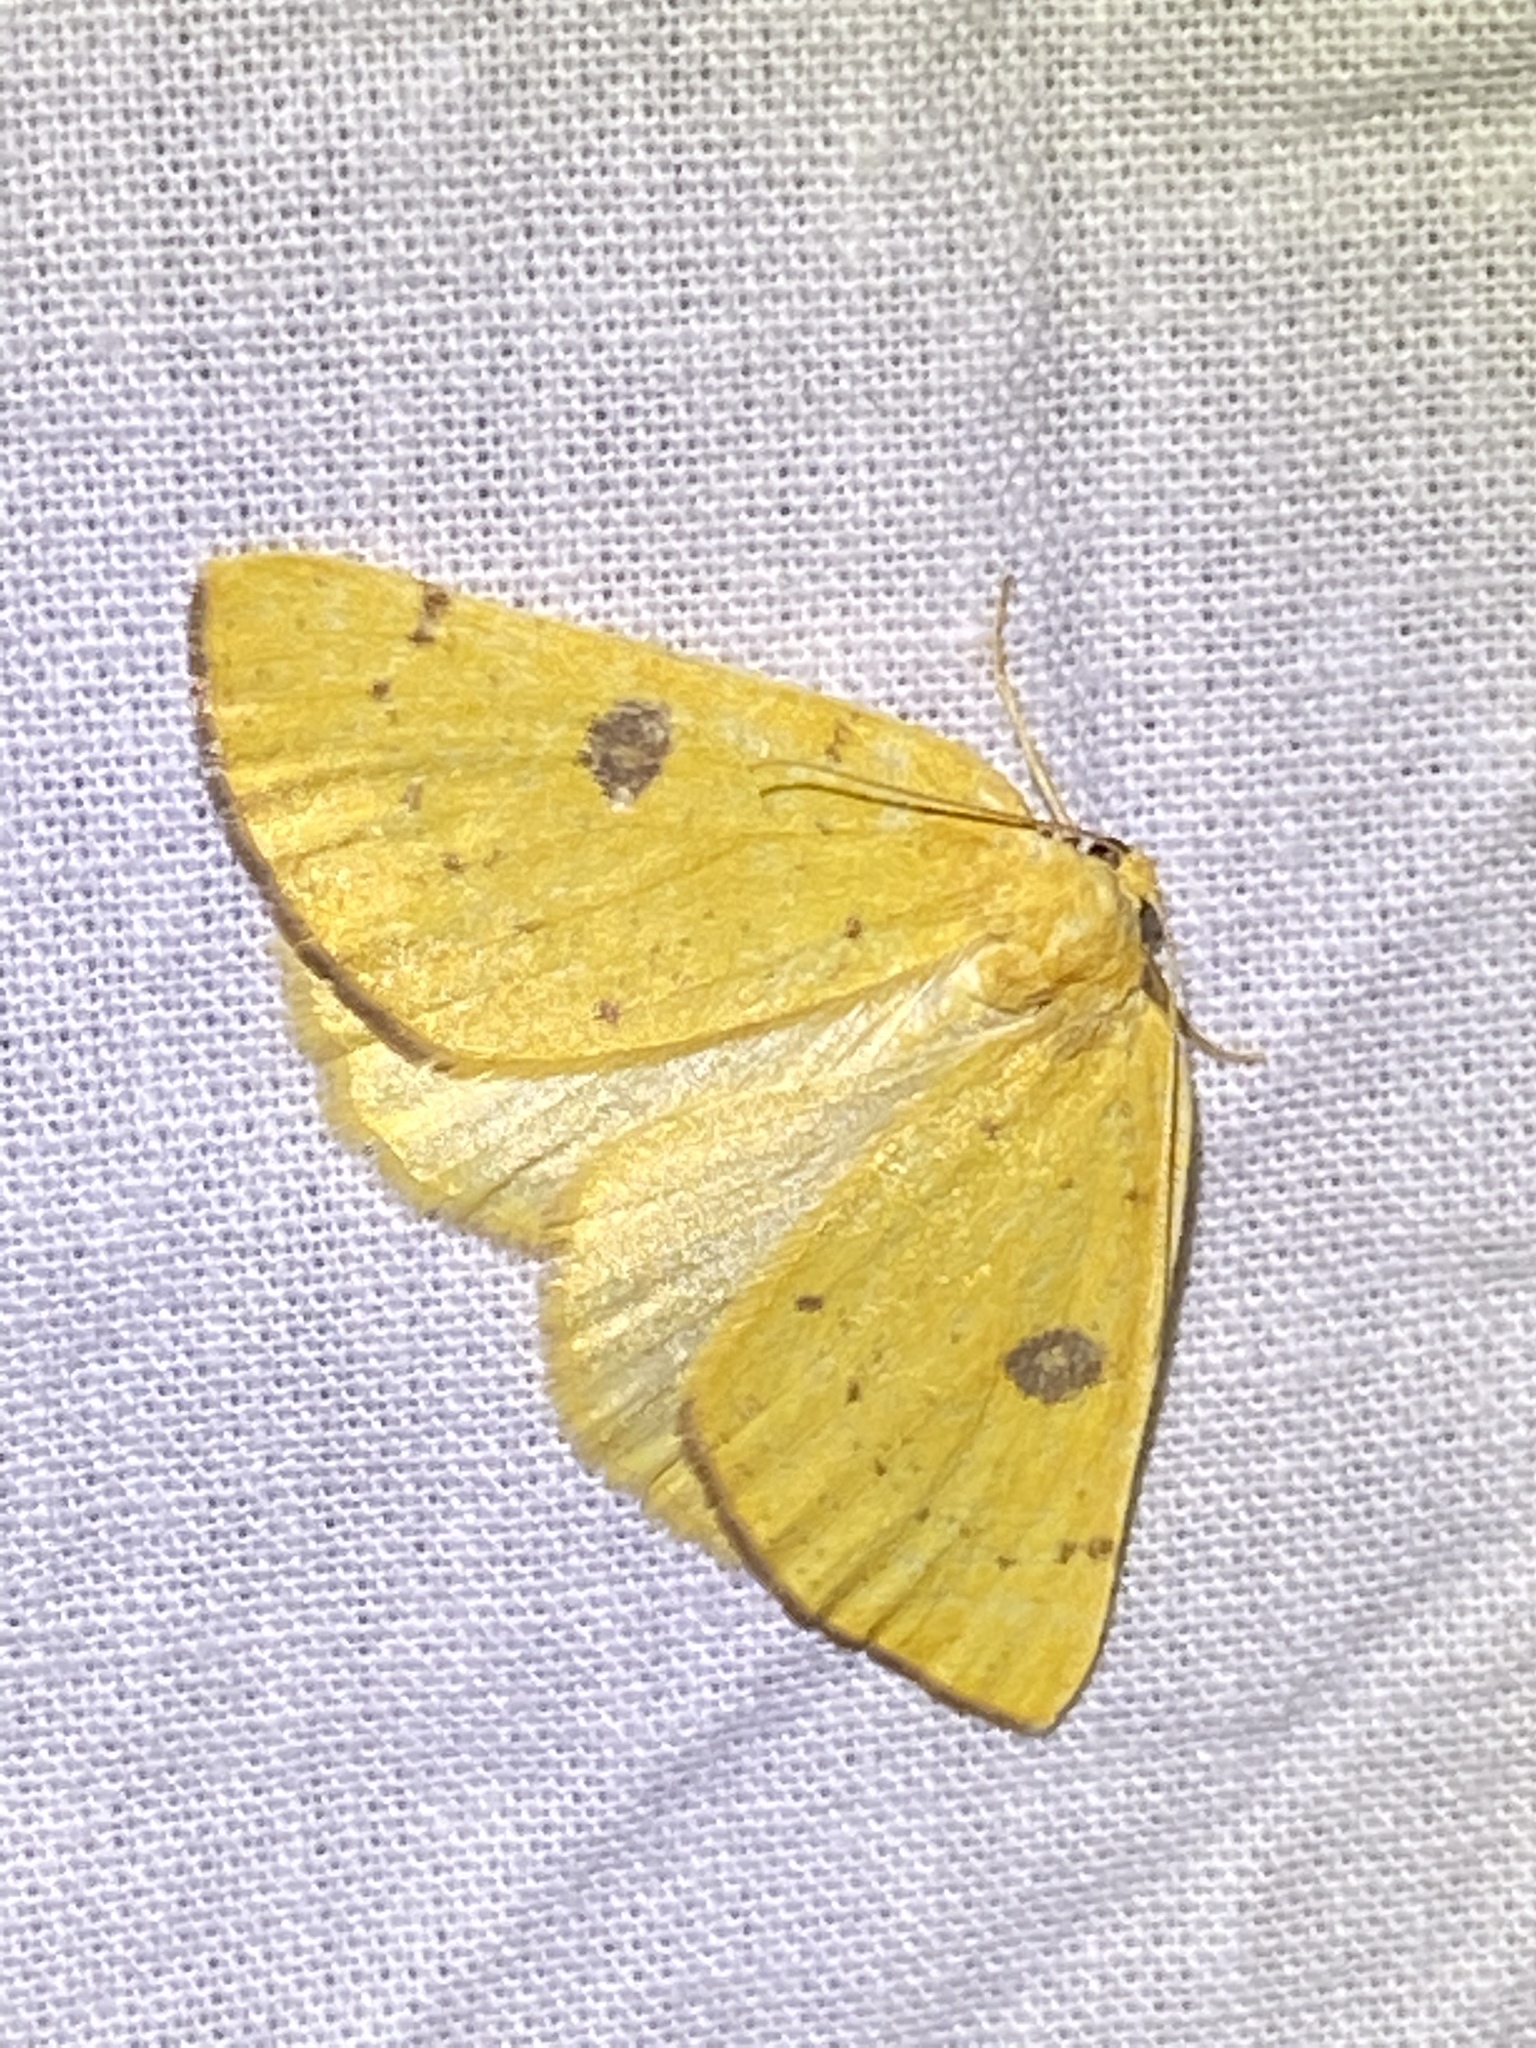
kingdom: Animalia
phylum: Arthropoda
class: Insecta
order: Lepidoptera
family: Geometridae
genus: Hesperumia
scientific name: Hesperumia sulphuraria
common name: Sulphur moth
